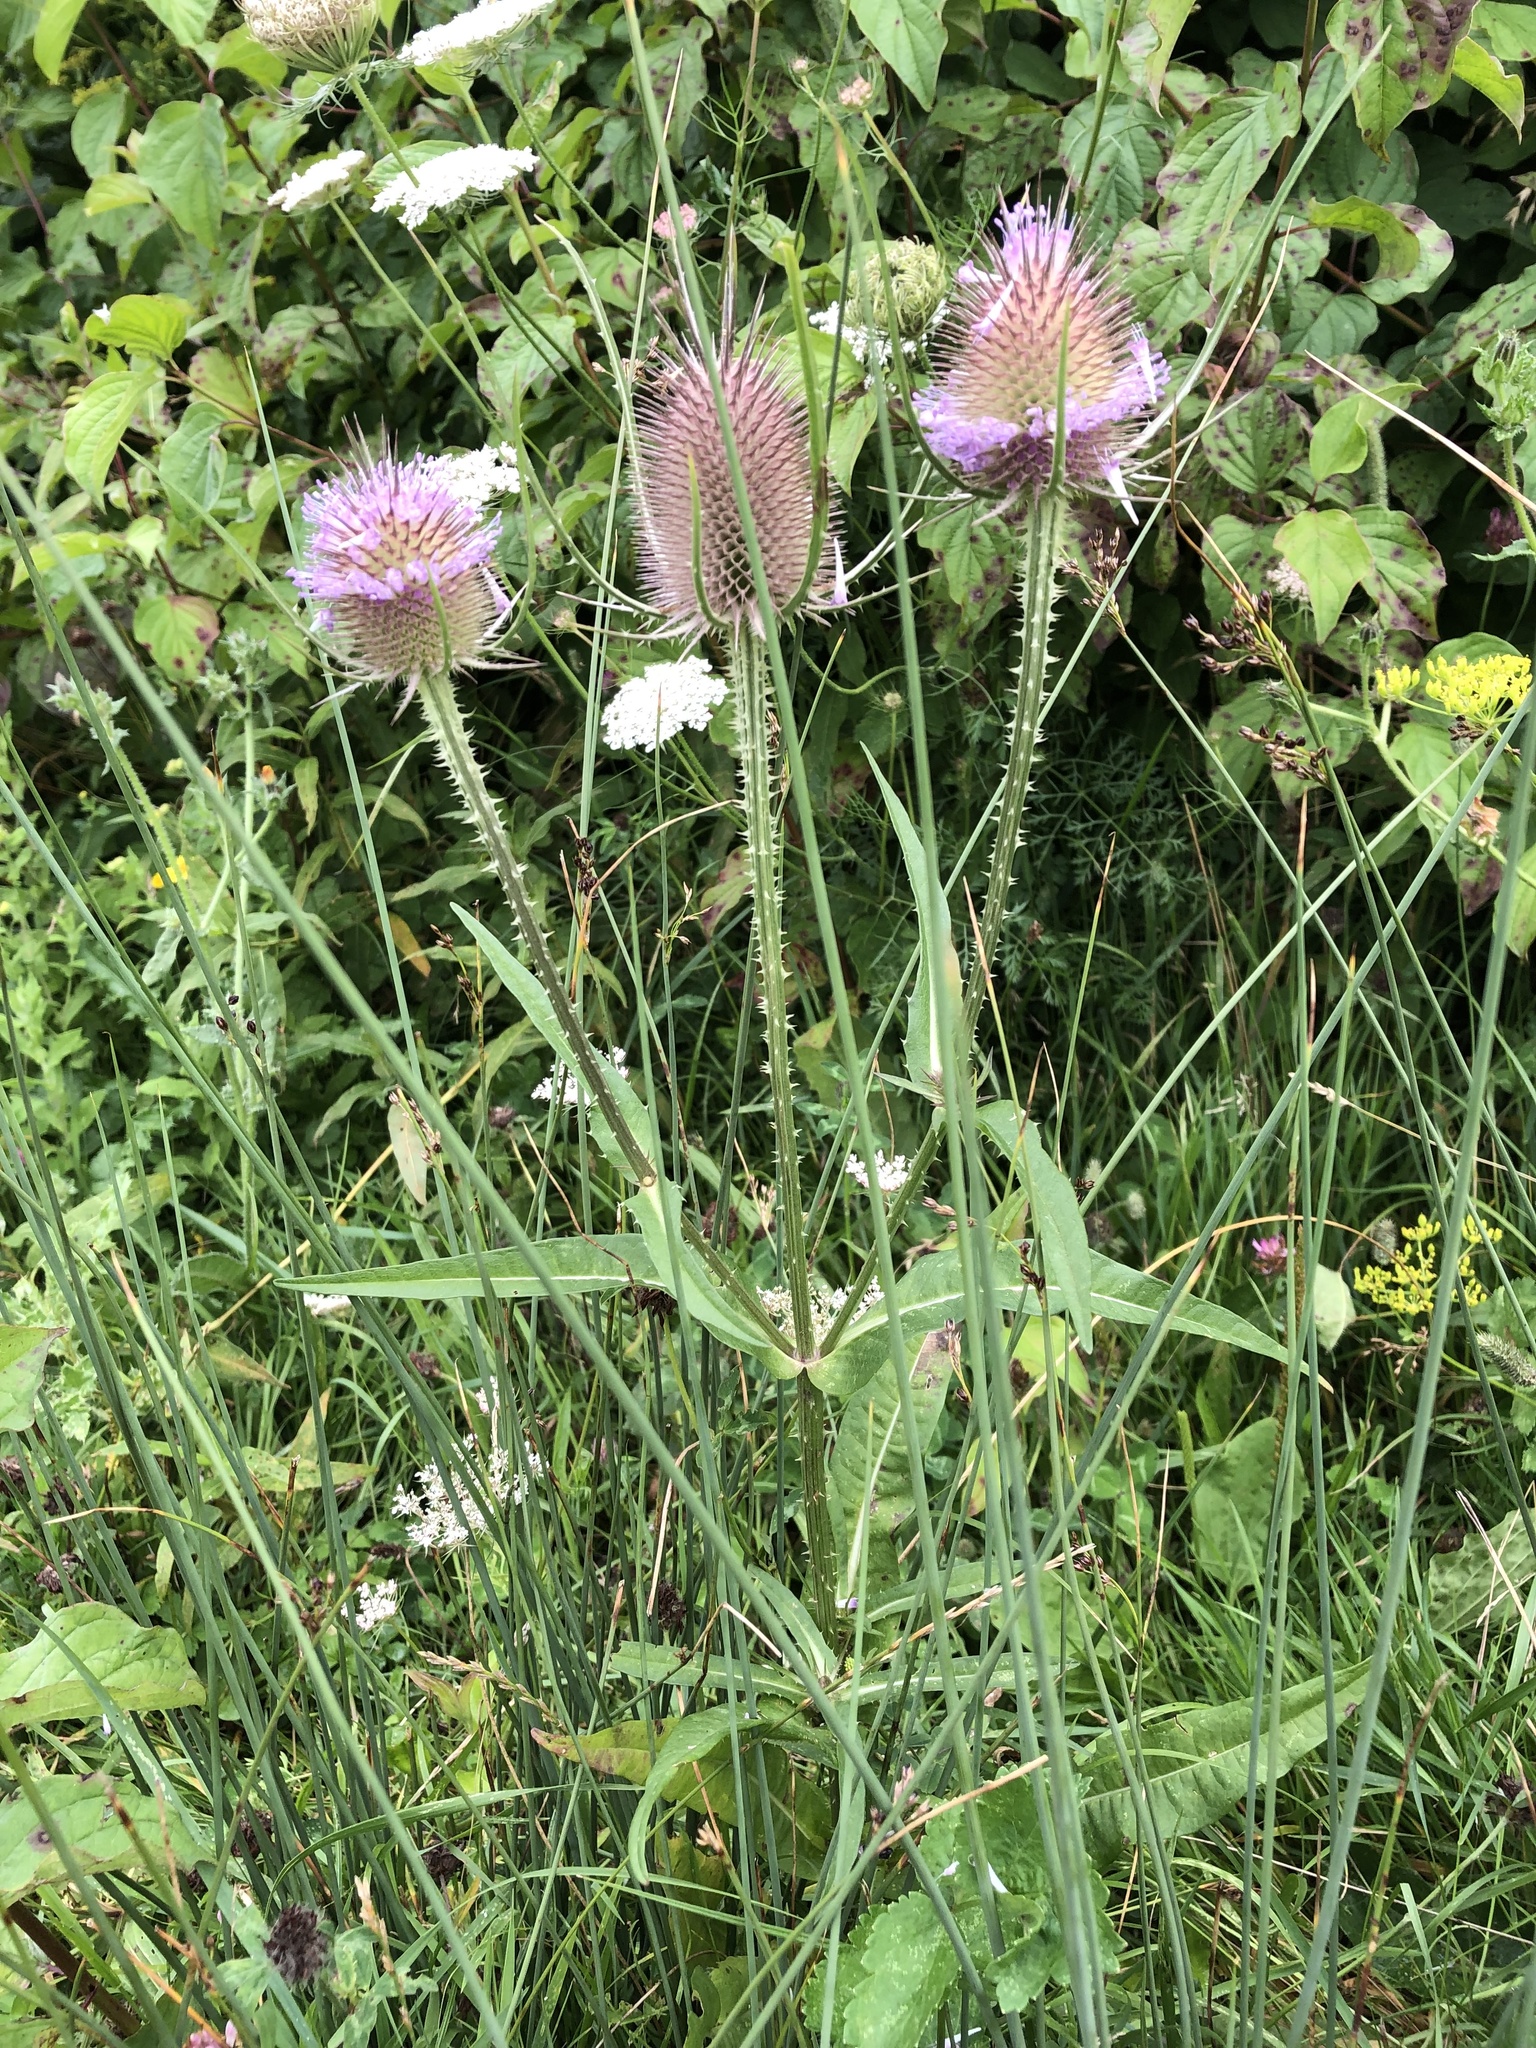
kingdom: Plantae
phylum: Tracheophyta
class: Magnoliopsida
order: Dipsacales
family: Caprifoliaceae
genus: Dipsacus
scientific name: Dipsacus fullonum
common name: Teasel
